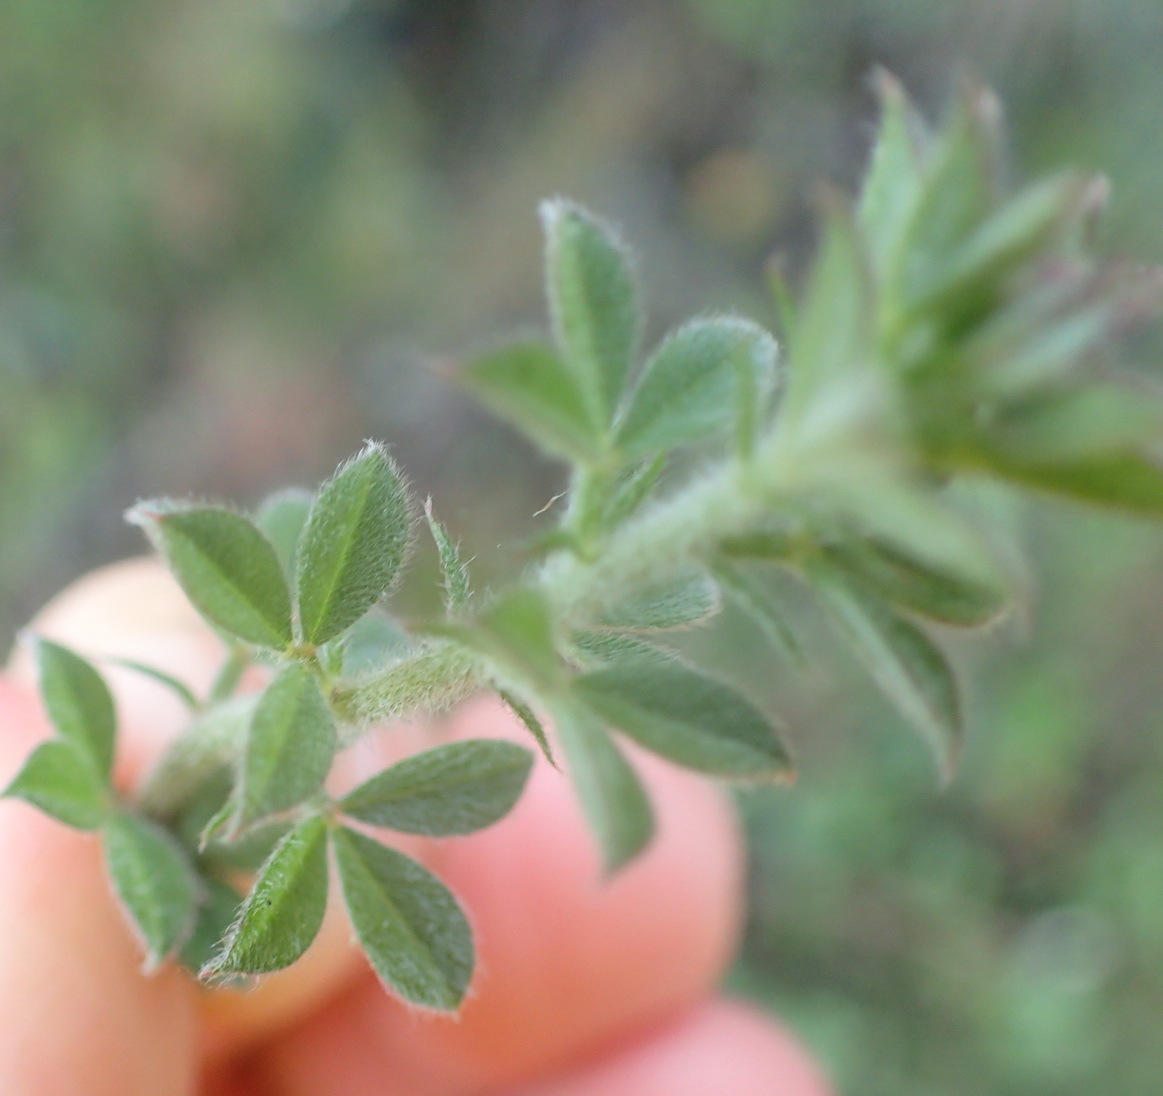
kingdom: Plantae
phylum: Tracheophyta
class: Magnoliopsida
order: Fabales
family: Fabaceae
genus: Indigofera
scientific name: Indigofera heterophylla
